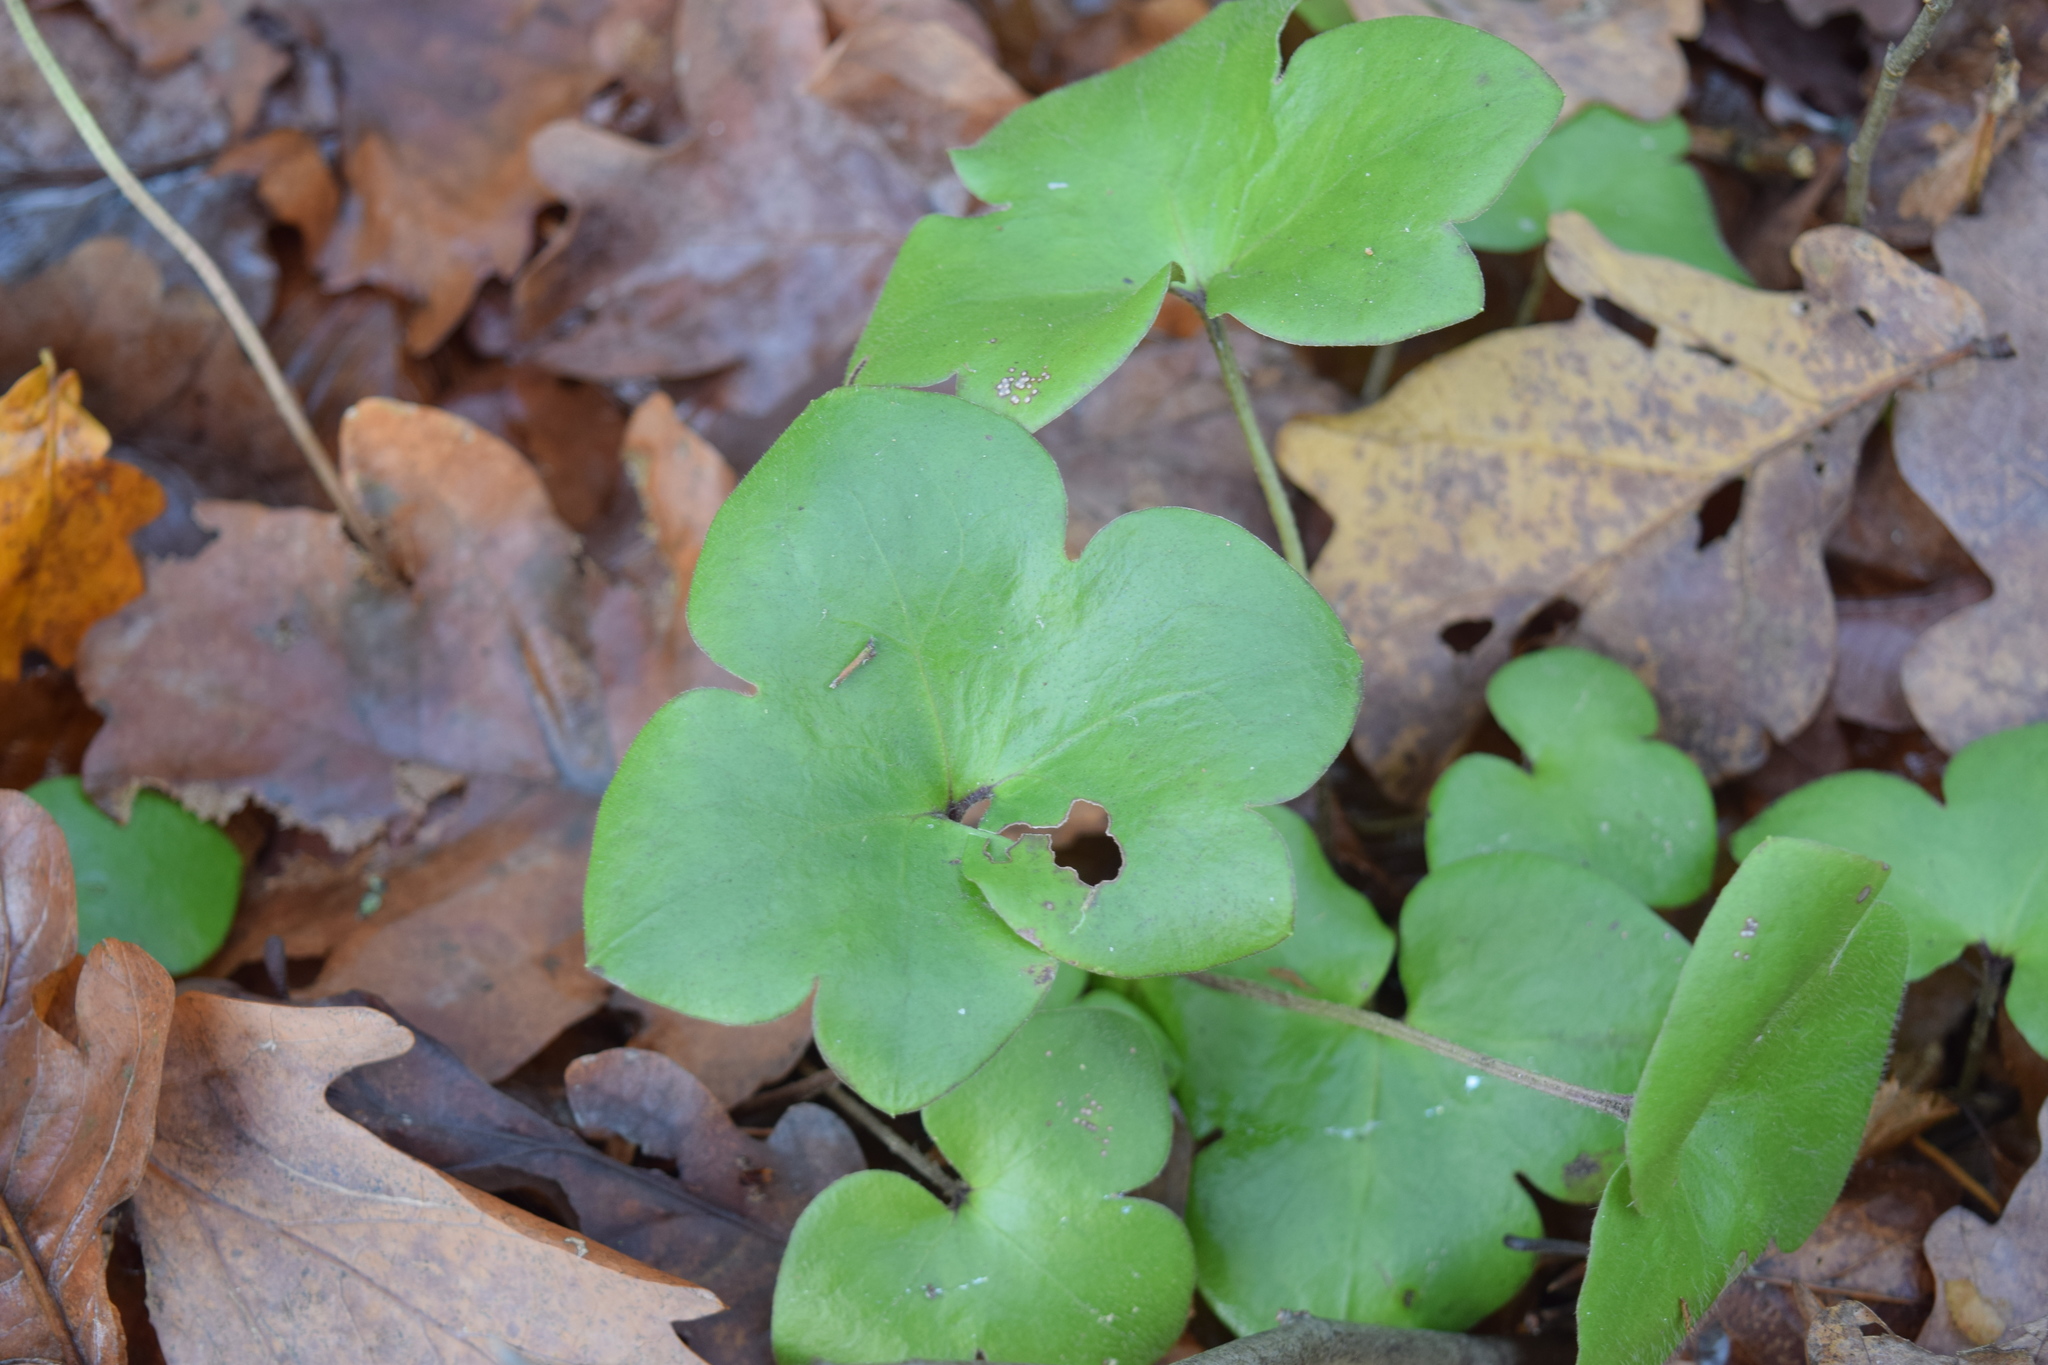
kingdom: Plantae
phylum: Tracheophyta
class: Magnoliopsida
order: Ranunculales
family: Ranunculaceae
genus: Hepatica
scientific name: Hepatica nobilis
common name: Liverleaf
